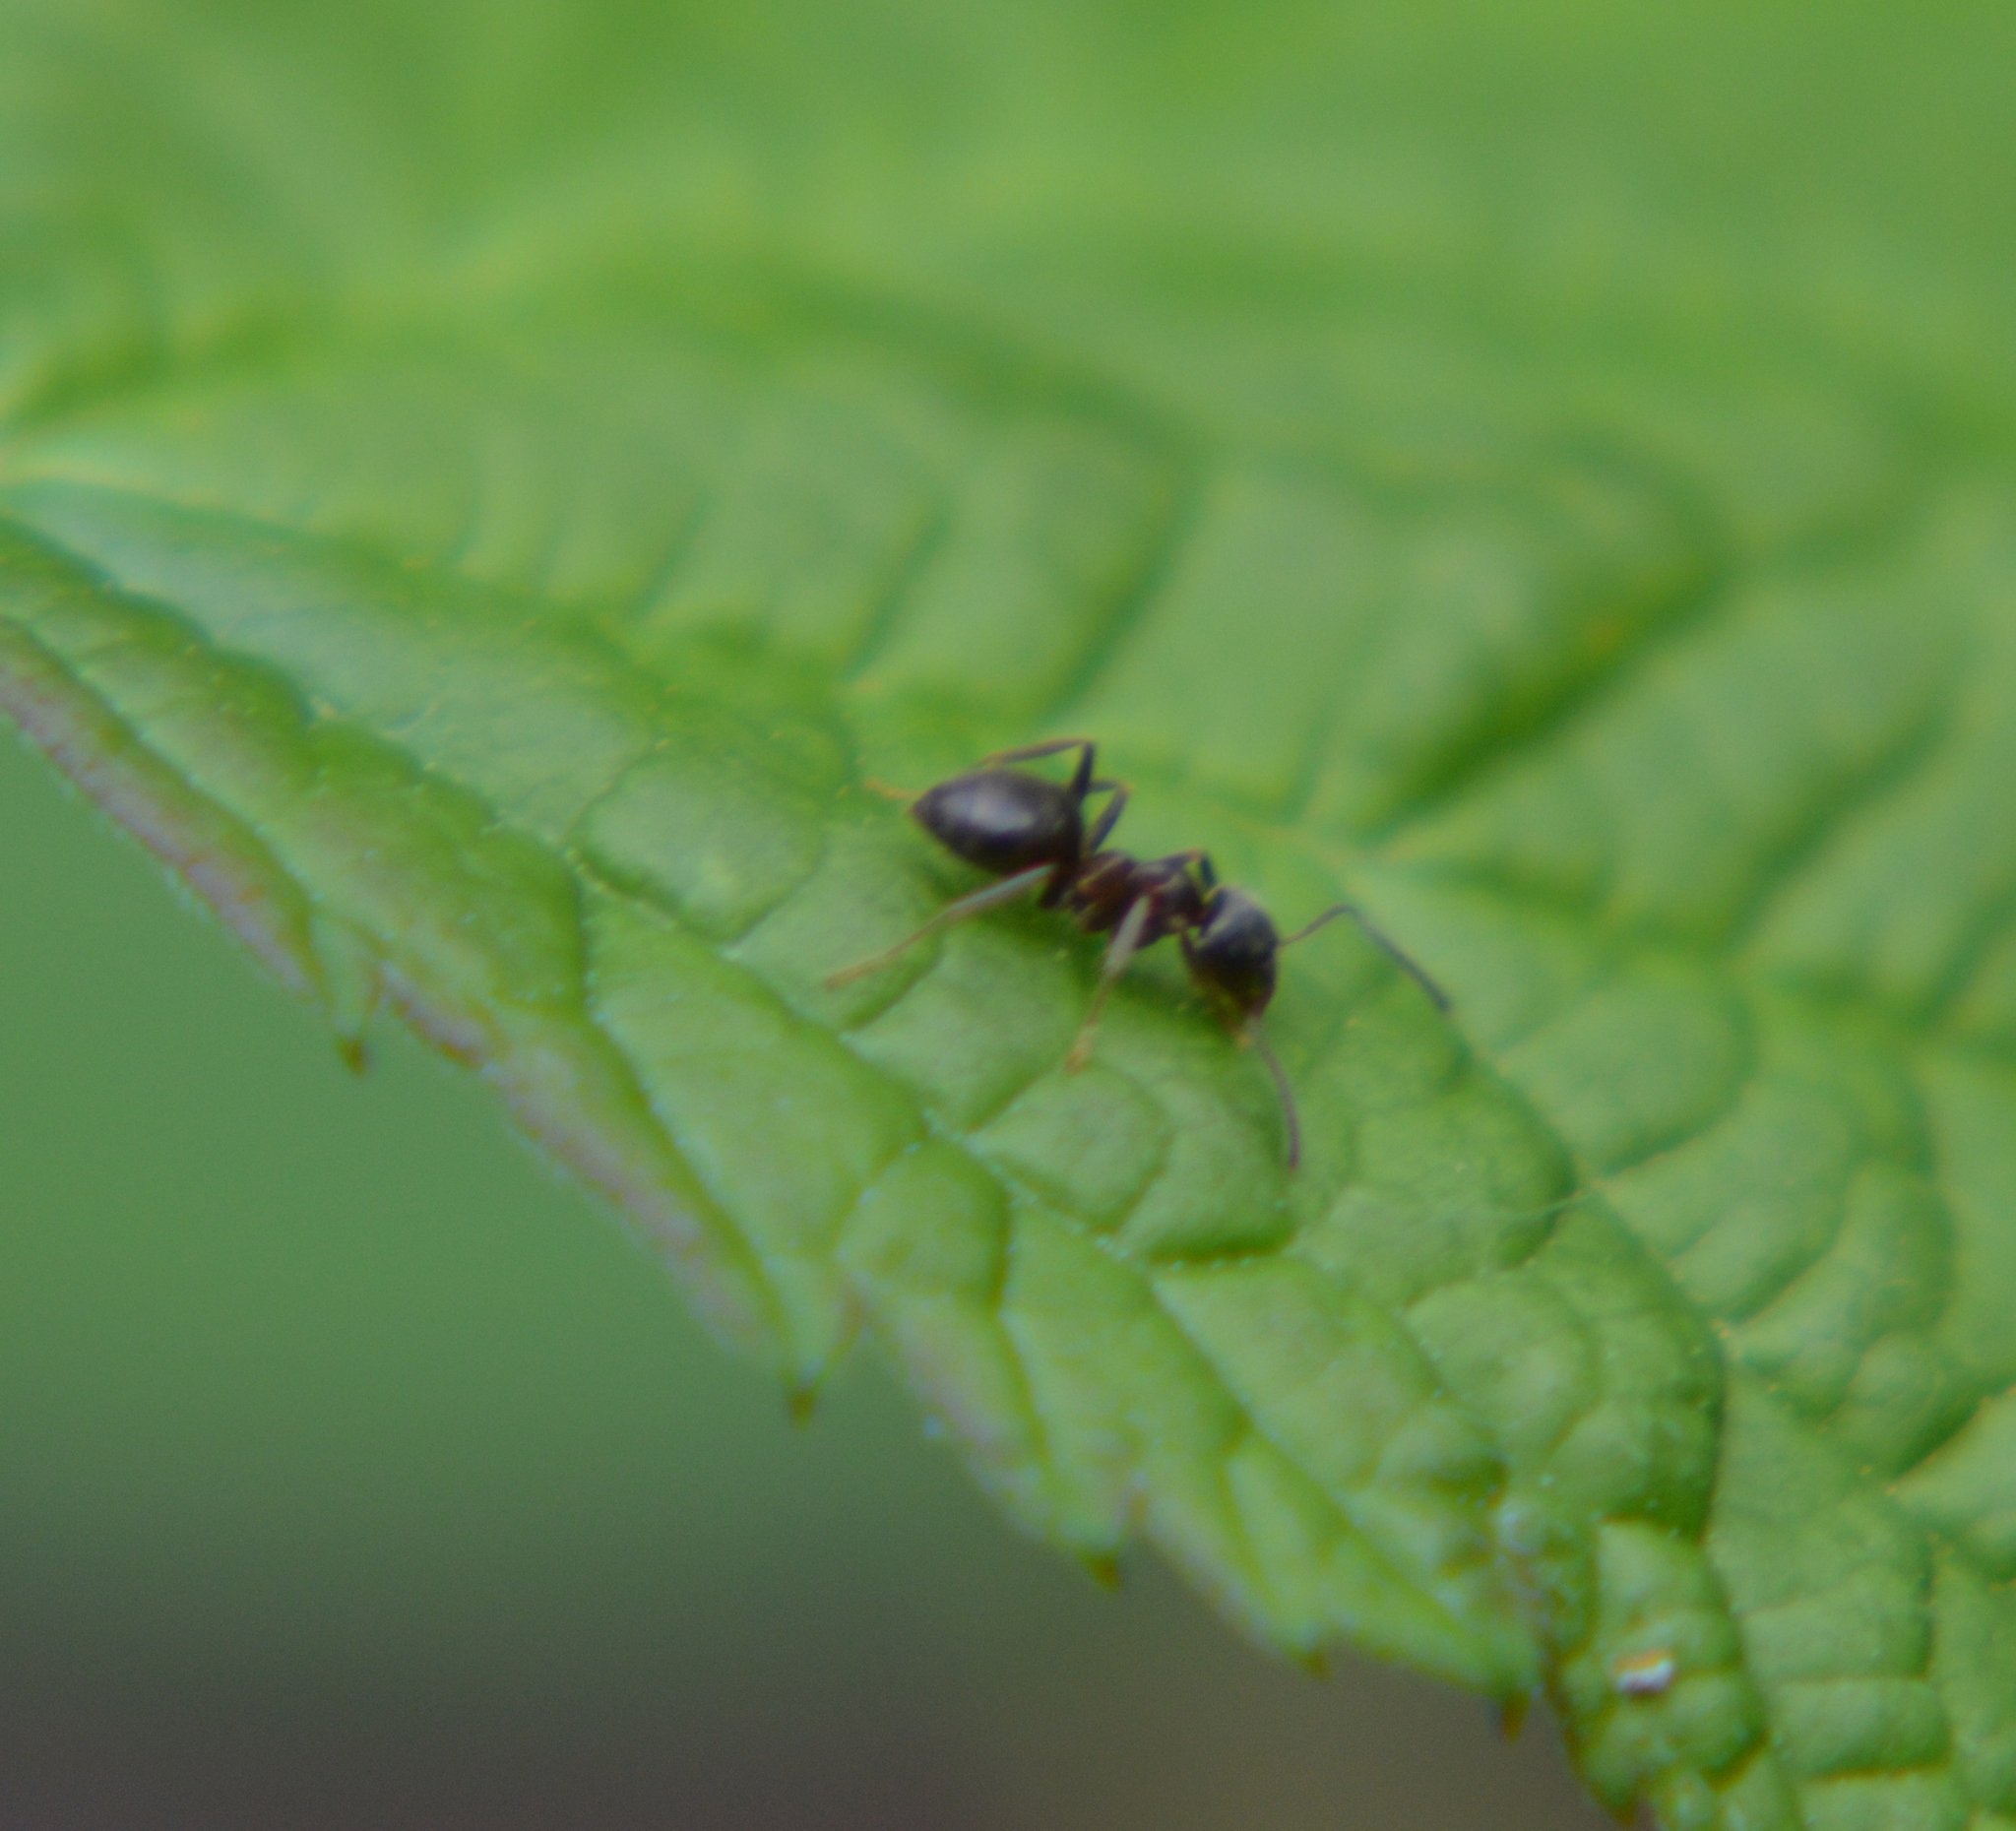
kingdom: Animalia
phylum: Arthropoda
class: Insecta
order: Hymenoptera
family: Formicidae
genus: Lasius
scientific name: Lasius
